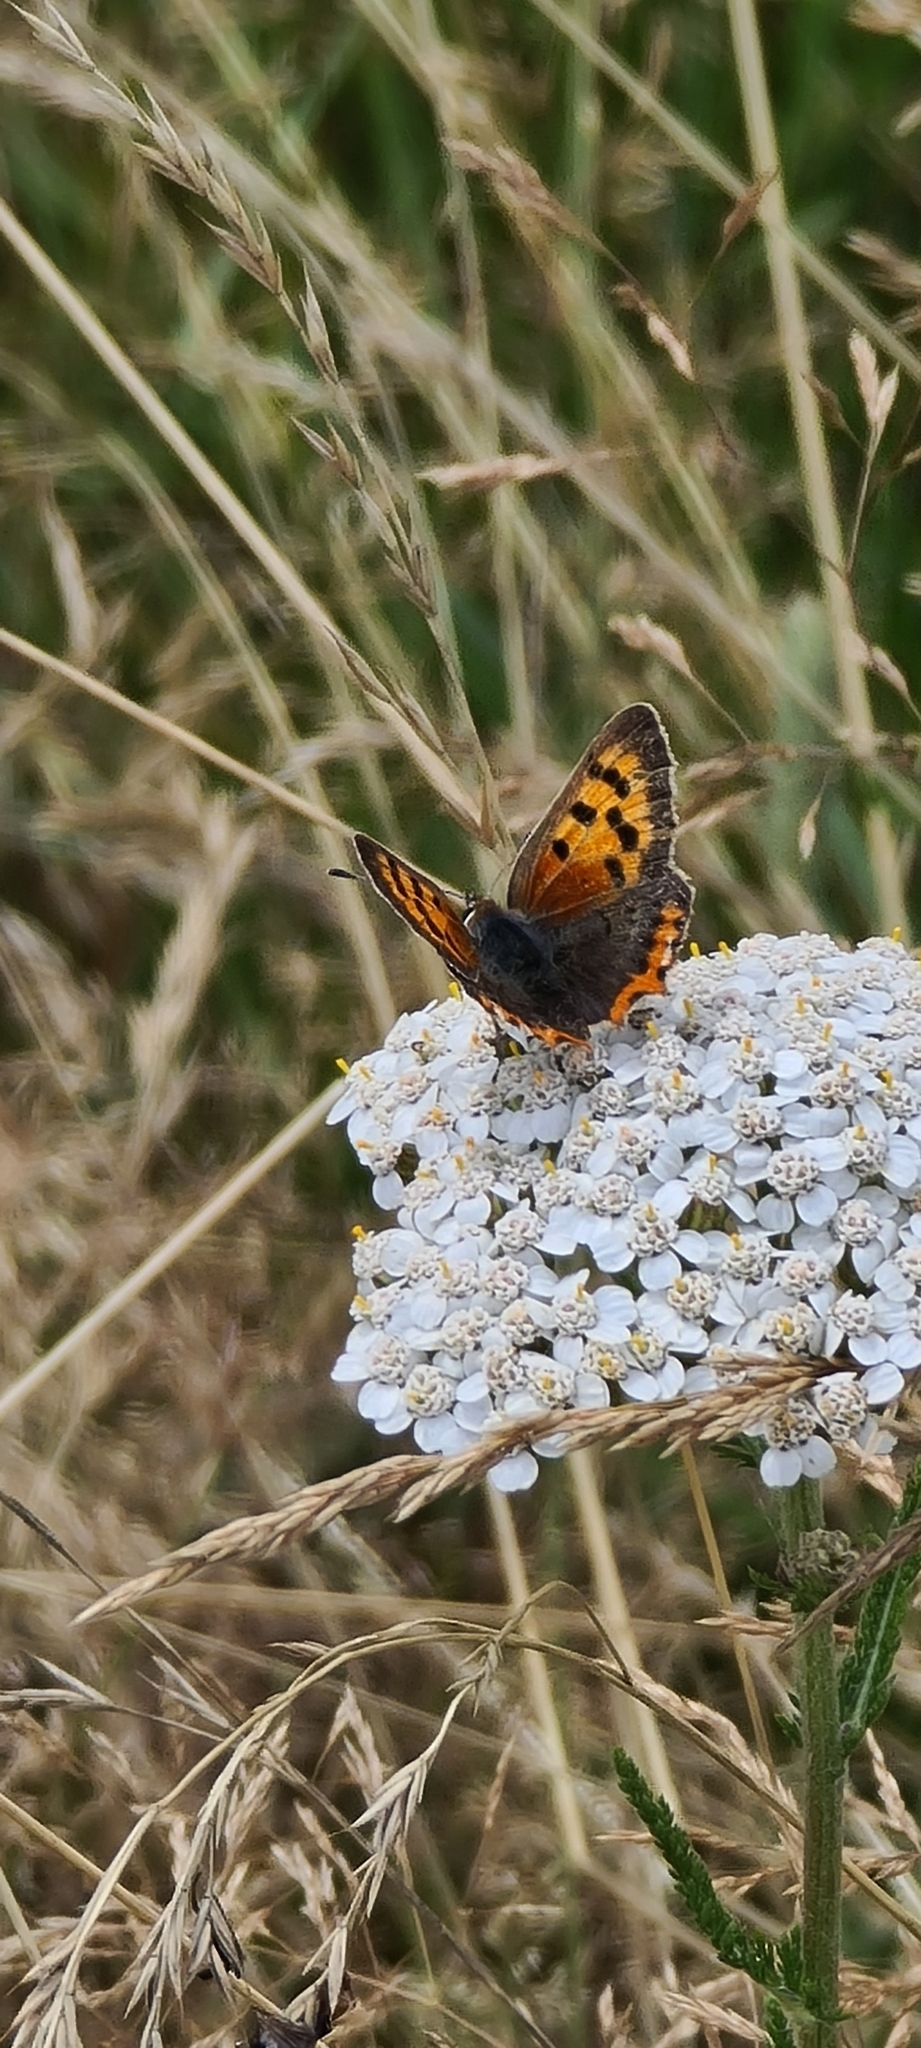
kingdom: Animalia
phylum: Arthropoda
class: Insecta
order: Lepidoptera
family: Lycaenidae
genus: Lycaena
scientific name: Lycaena phlaeas
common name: Small copper
